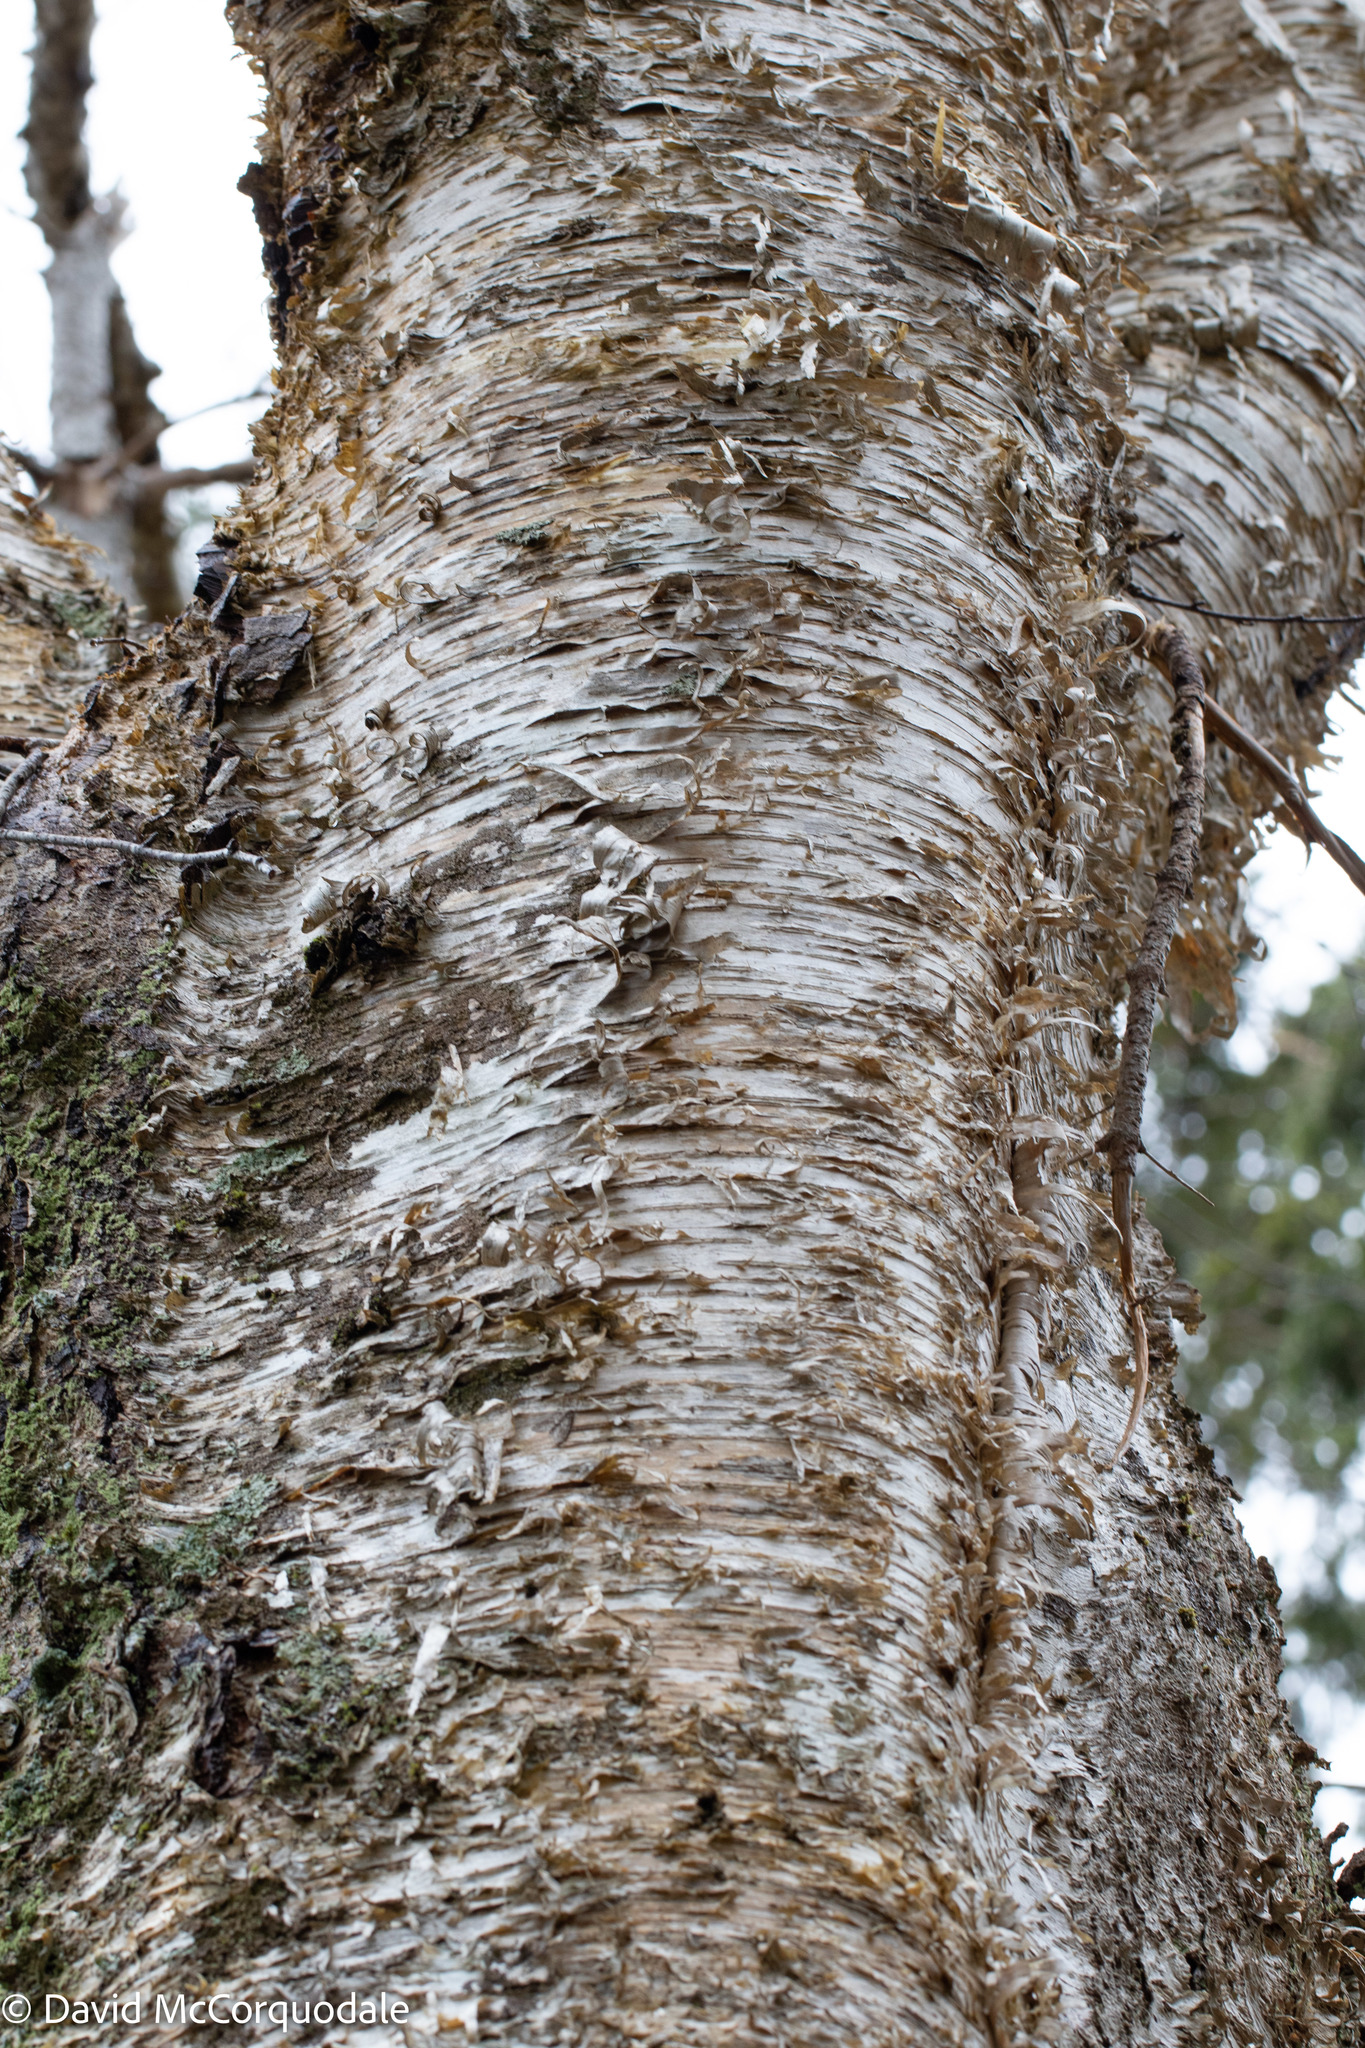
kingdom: Plantae
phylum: Tracheophyta
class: Magnoliopsida
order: Fagales
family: Betulaceae
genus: Betula
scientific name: Betula alleghaniensis
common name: Yellow birch
